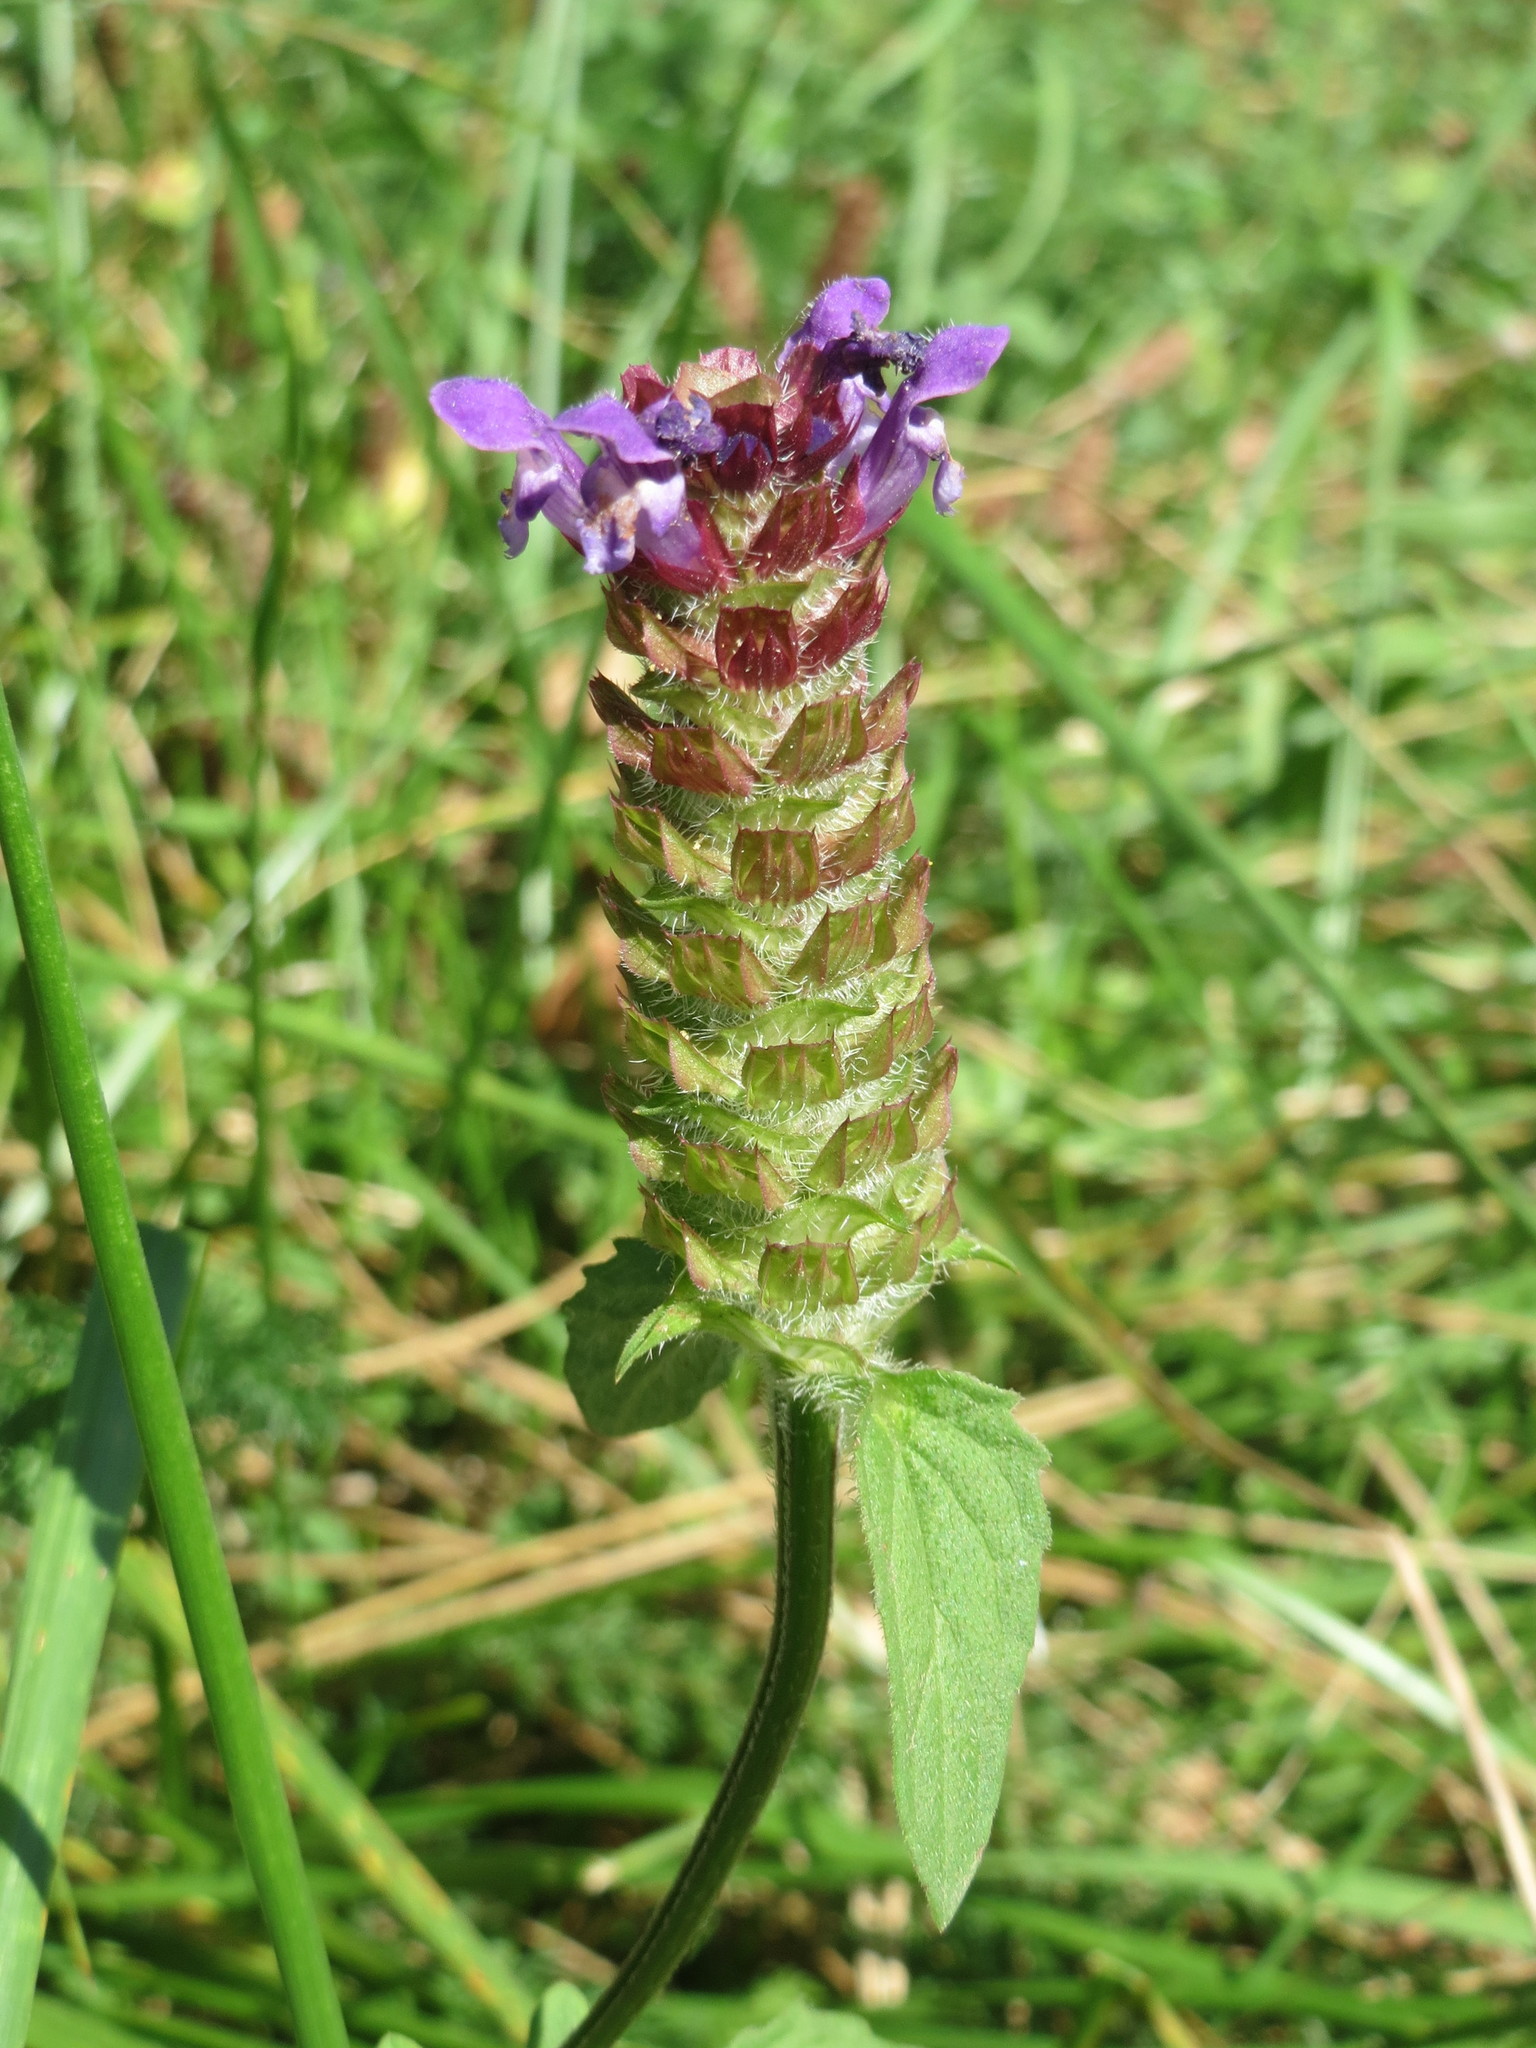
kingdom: Plantae
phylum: Tracheophyta
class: Magnoliopsida
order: Lamiales
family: Lamiaceae
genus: Prunella
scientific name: Prunella vulgaris
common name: Heal-all
